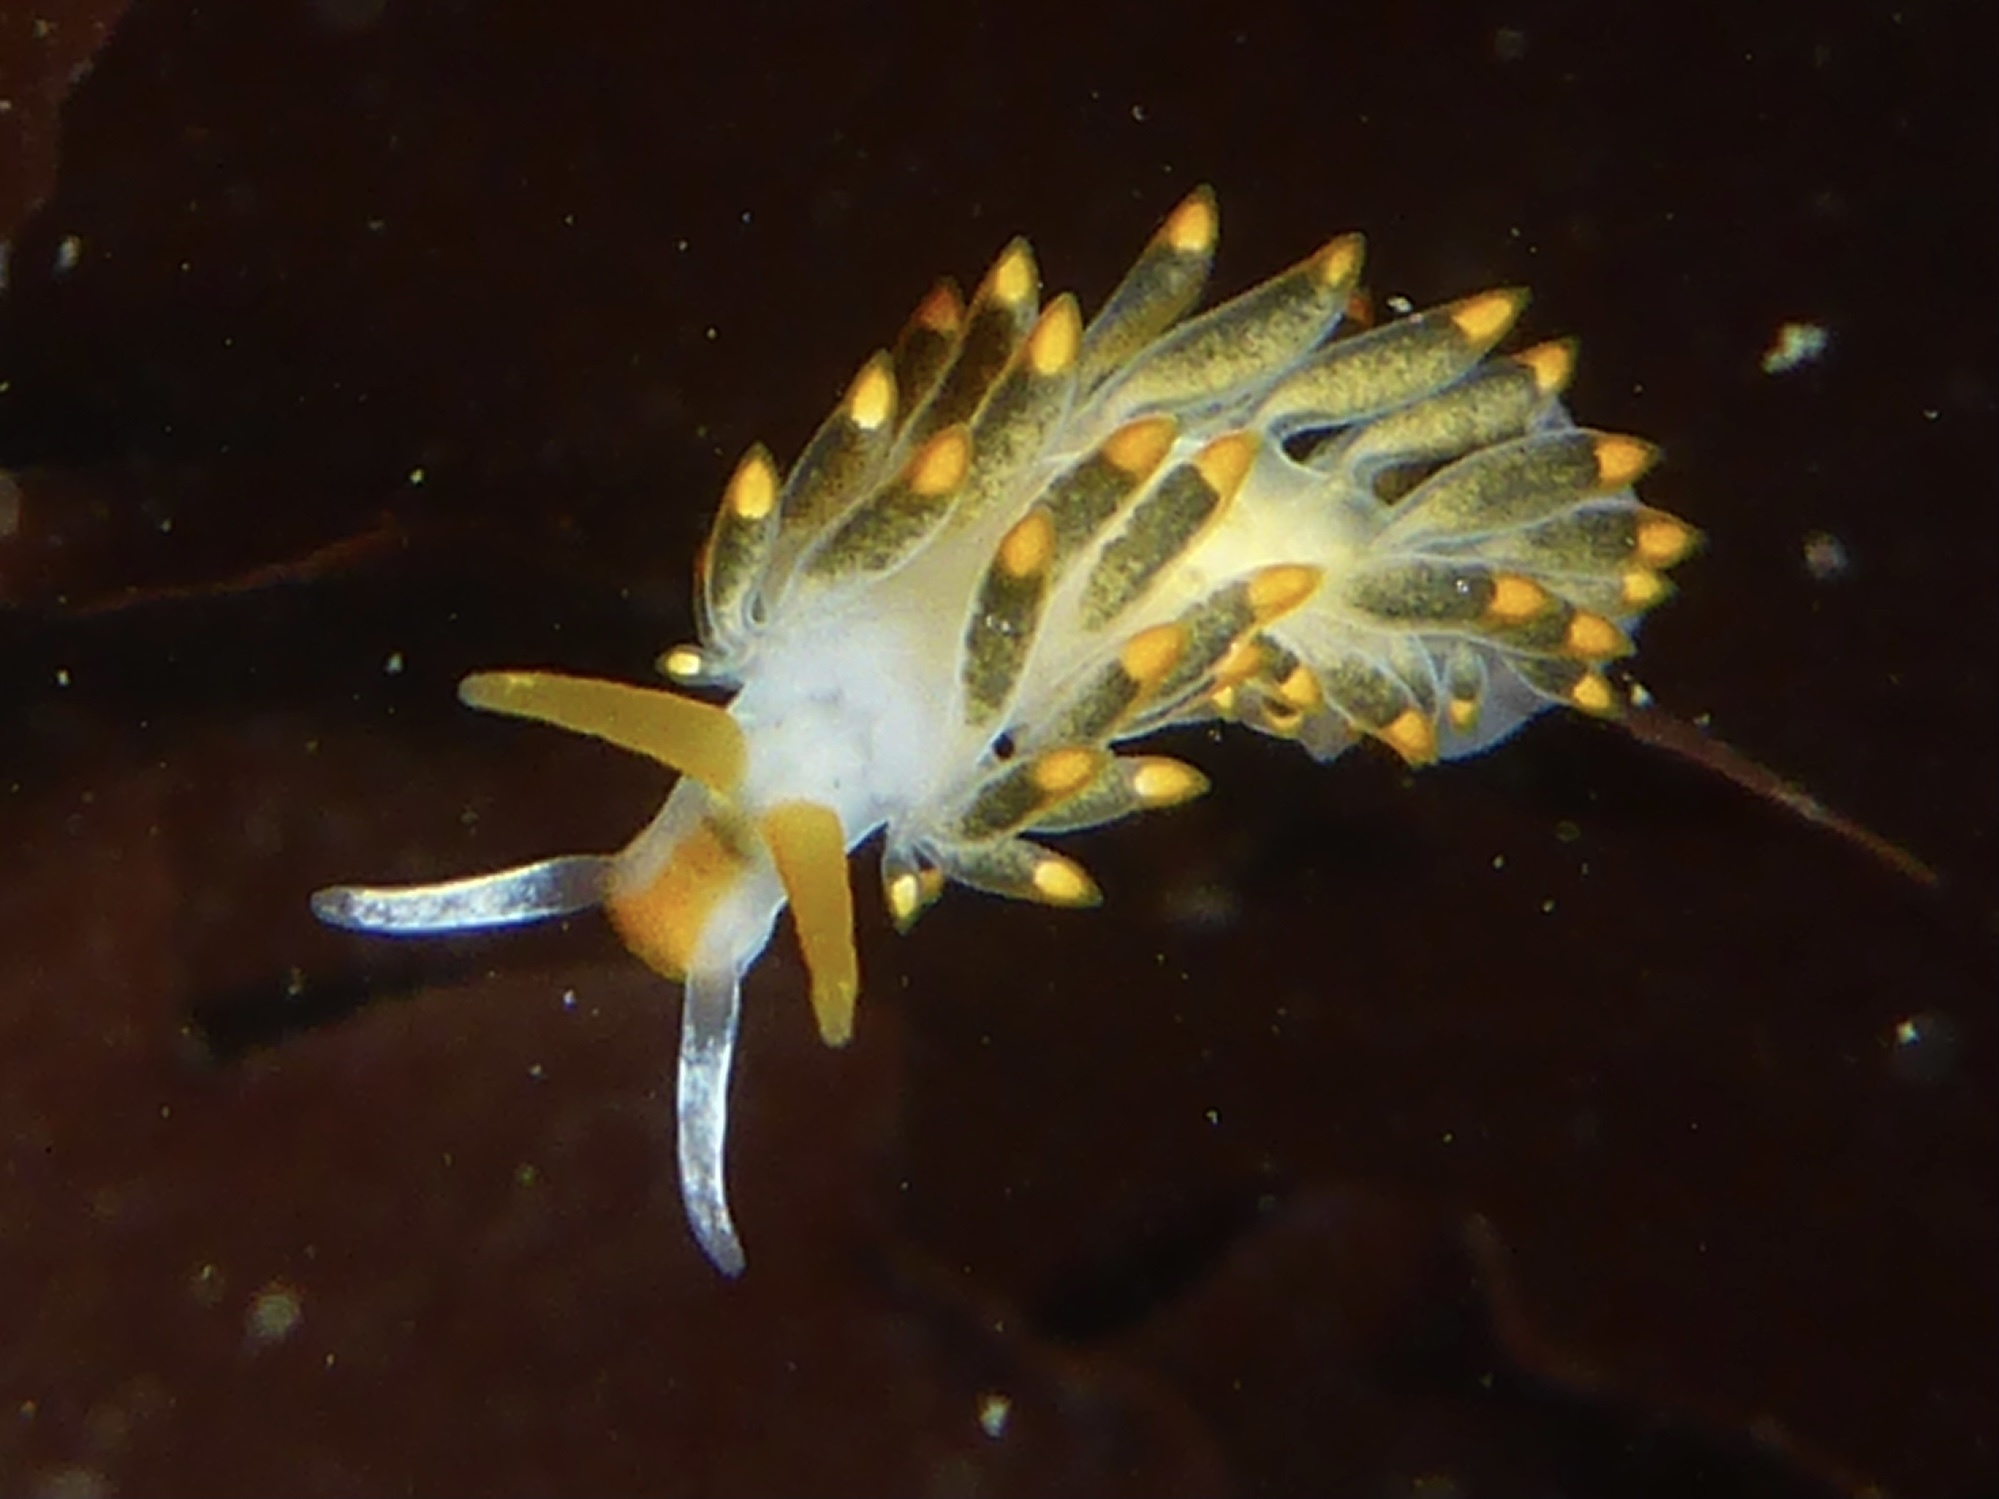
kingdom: Animalia
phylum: Mollusca
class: Gastropoda
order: Nudibranchia
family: Trinchesiidae
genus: Diaphoreolis
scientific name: Diaphoreolis lagunae
